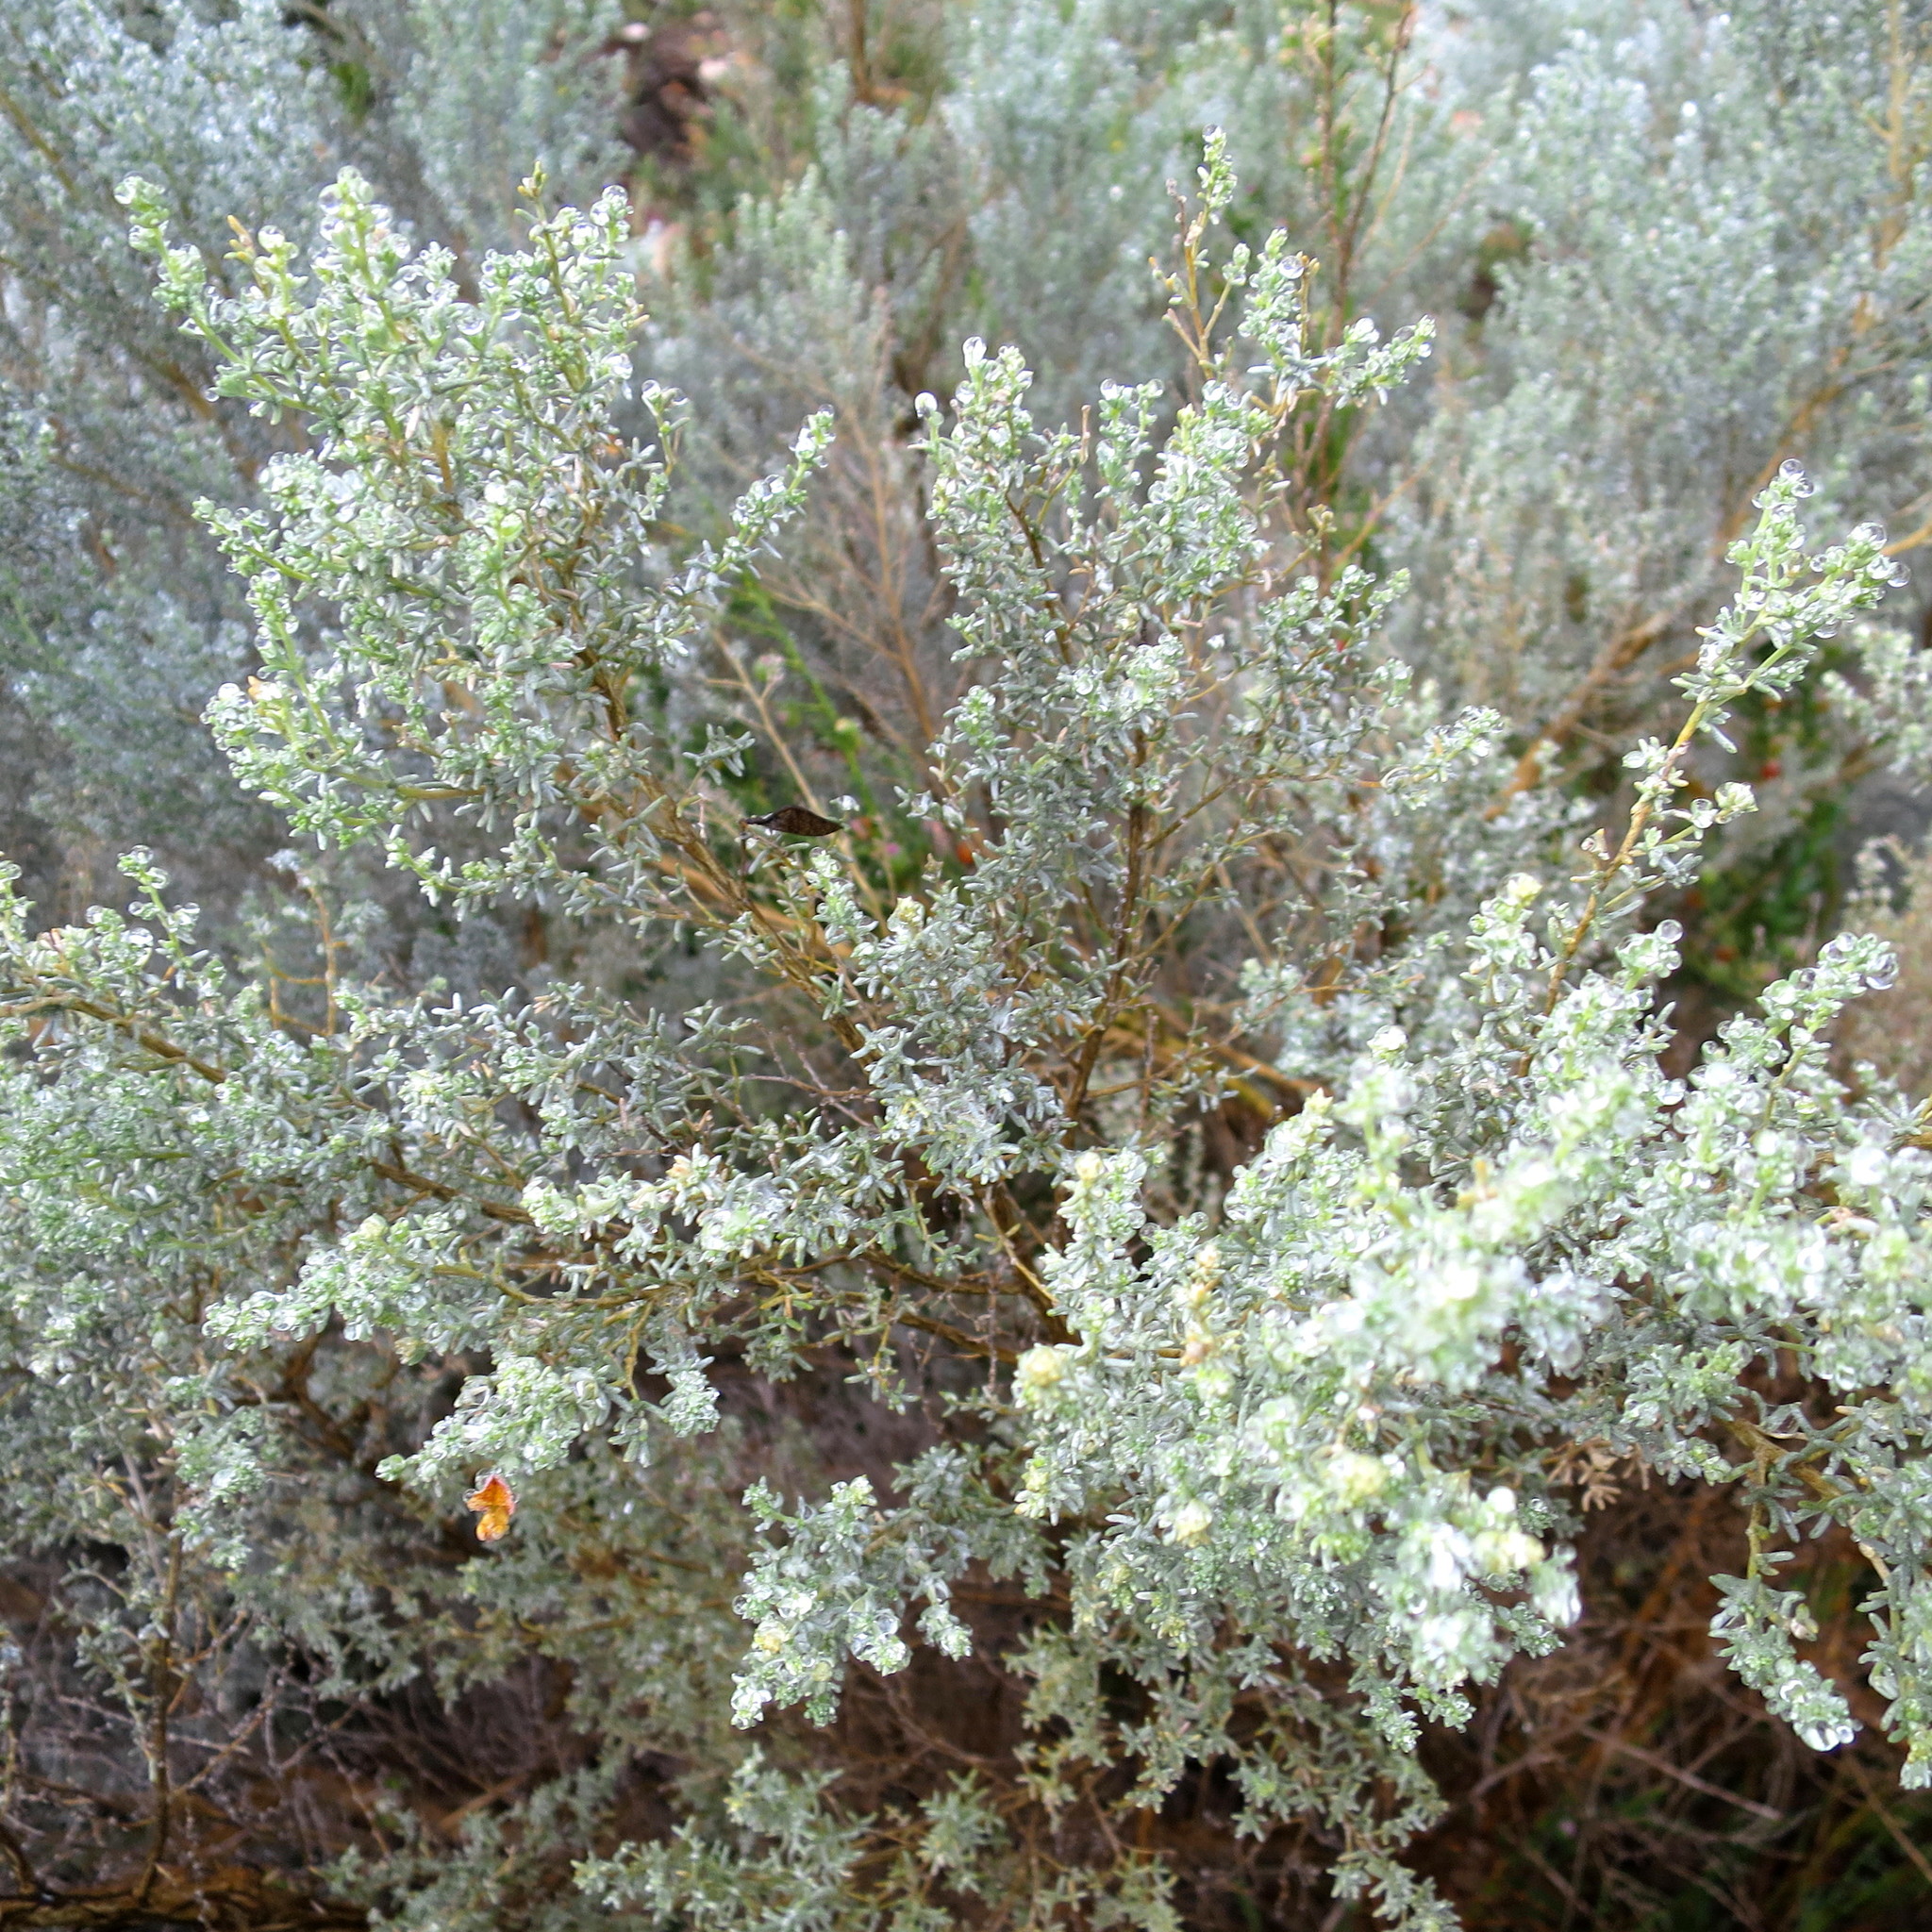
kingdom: Plantae
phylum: Tracheophyta
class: Magnoliopsida
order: Fabales
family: Fabaceae
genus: Aspalathus
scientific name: Aspalathus pedunculata
